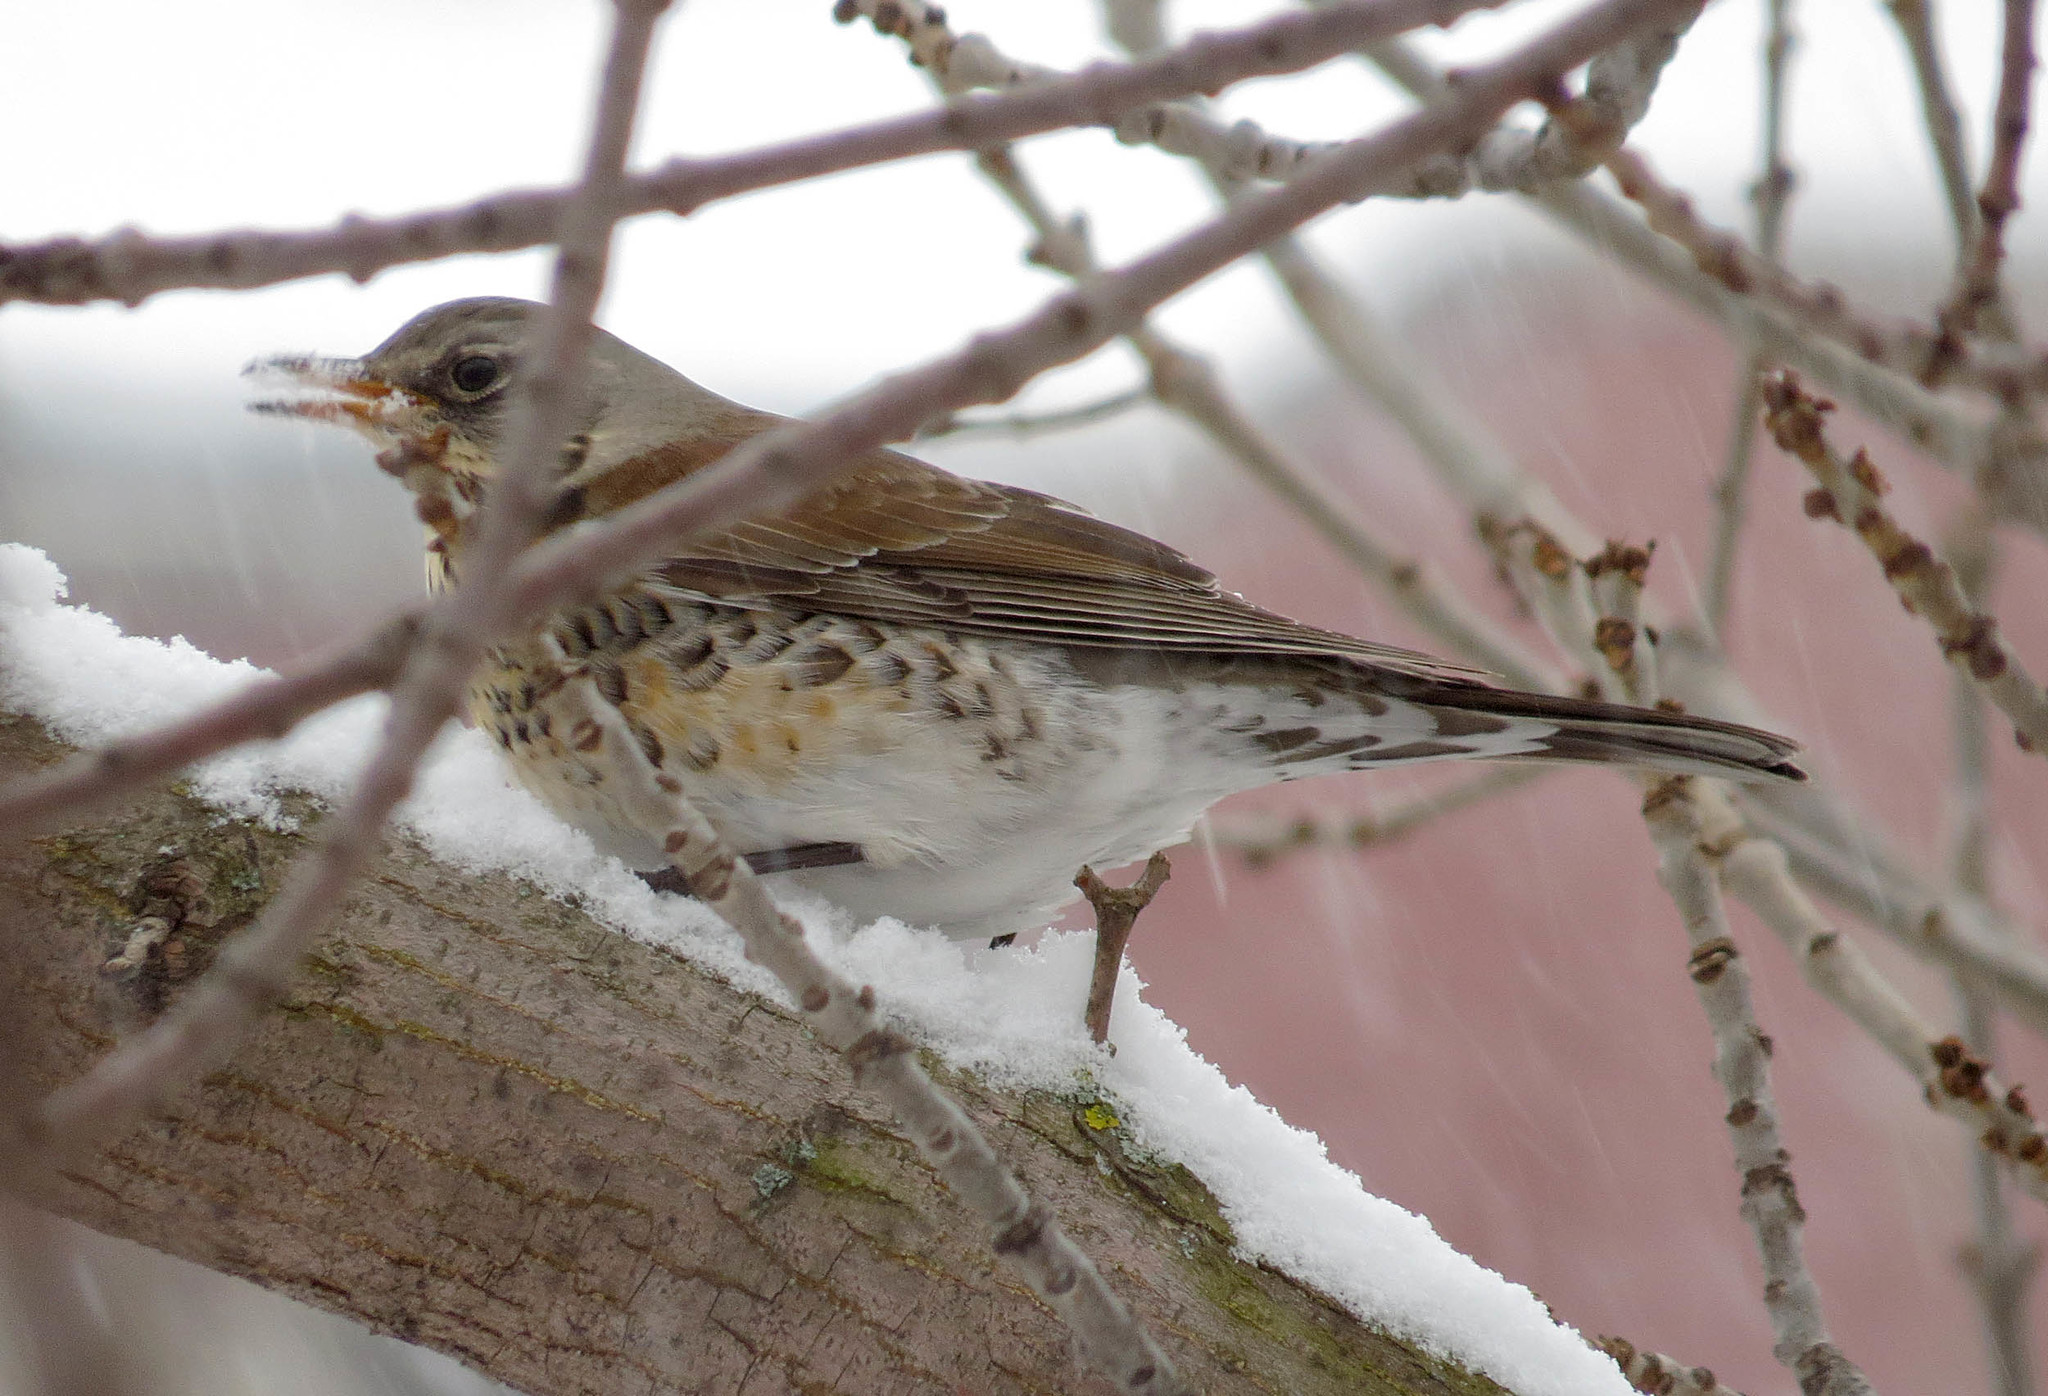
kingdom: Animalia
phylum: Chordata
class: Aves
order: Passeriformes
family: Turdidae
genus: Turdus
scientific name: Turdus pilaris
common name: Fieldfare
